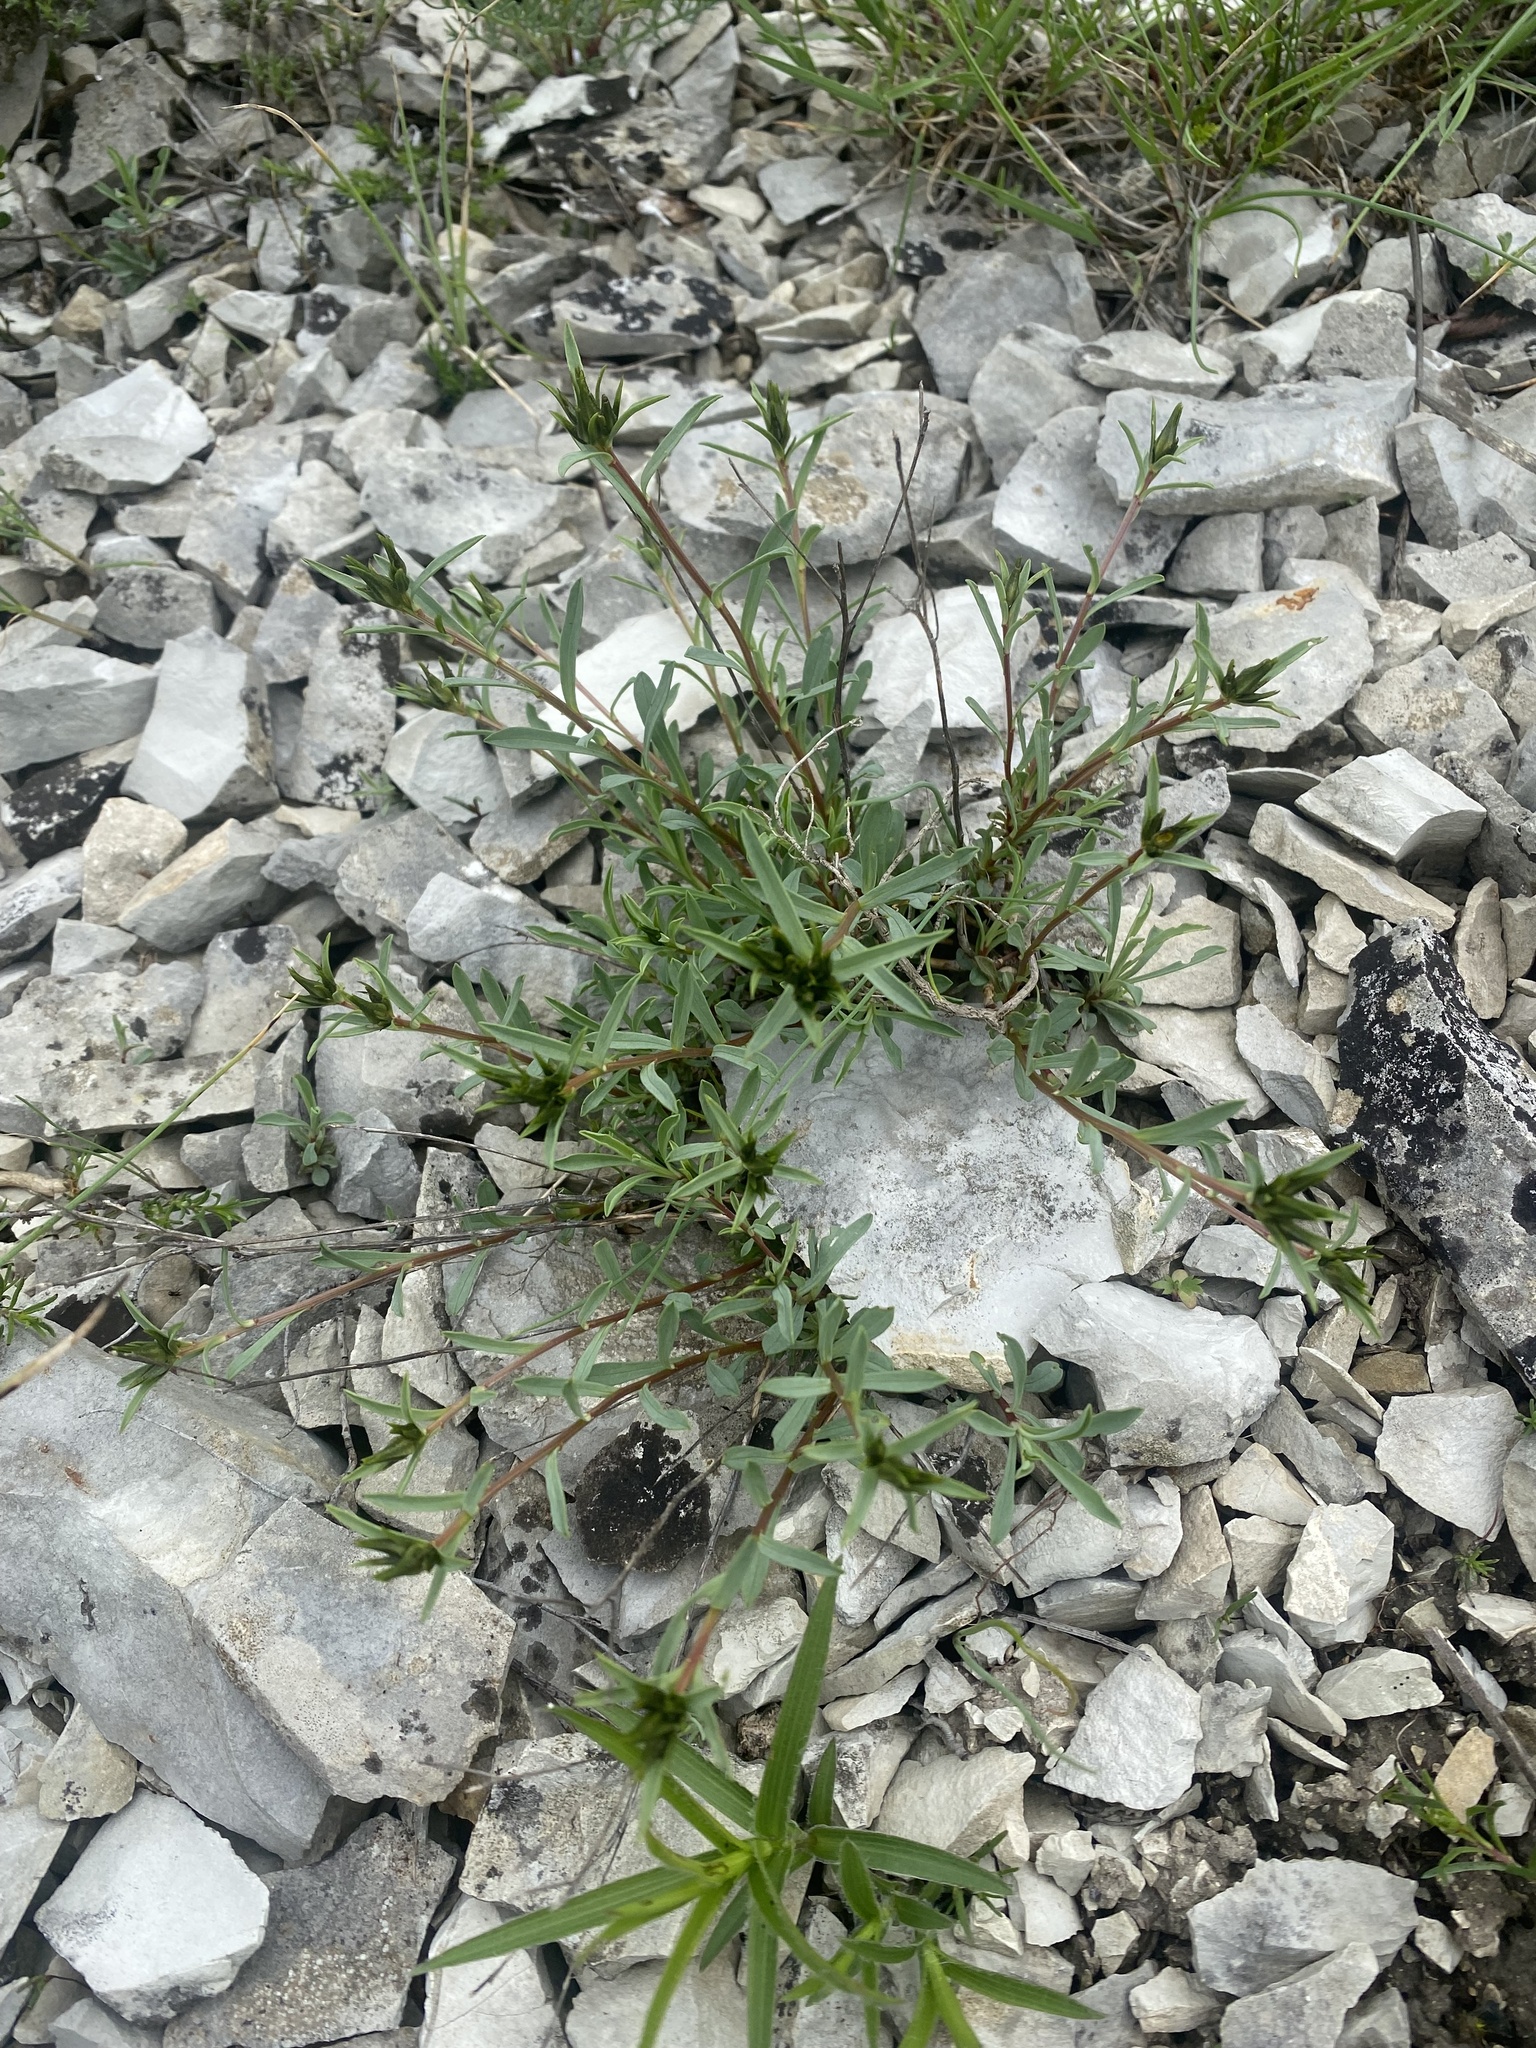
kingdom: Plantae
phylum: Tracheophyta
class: Magnoliopsida
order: Malpighiales
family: Linaceae
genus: Linum
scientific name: Linum tauricum
